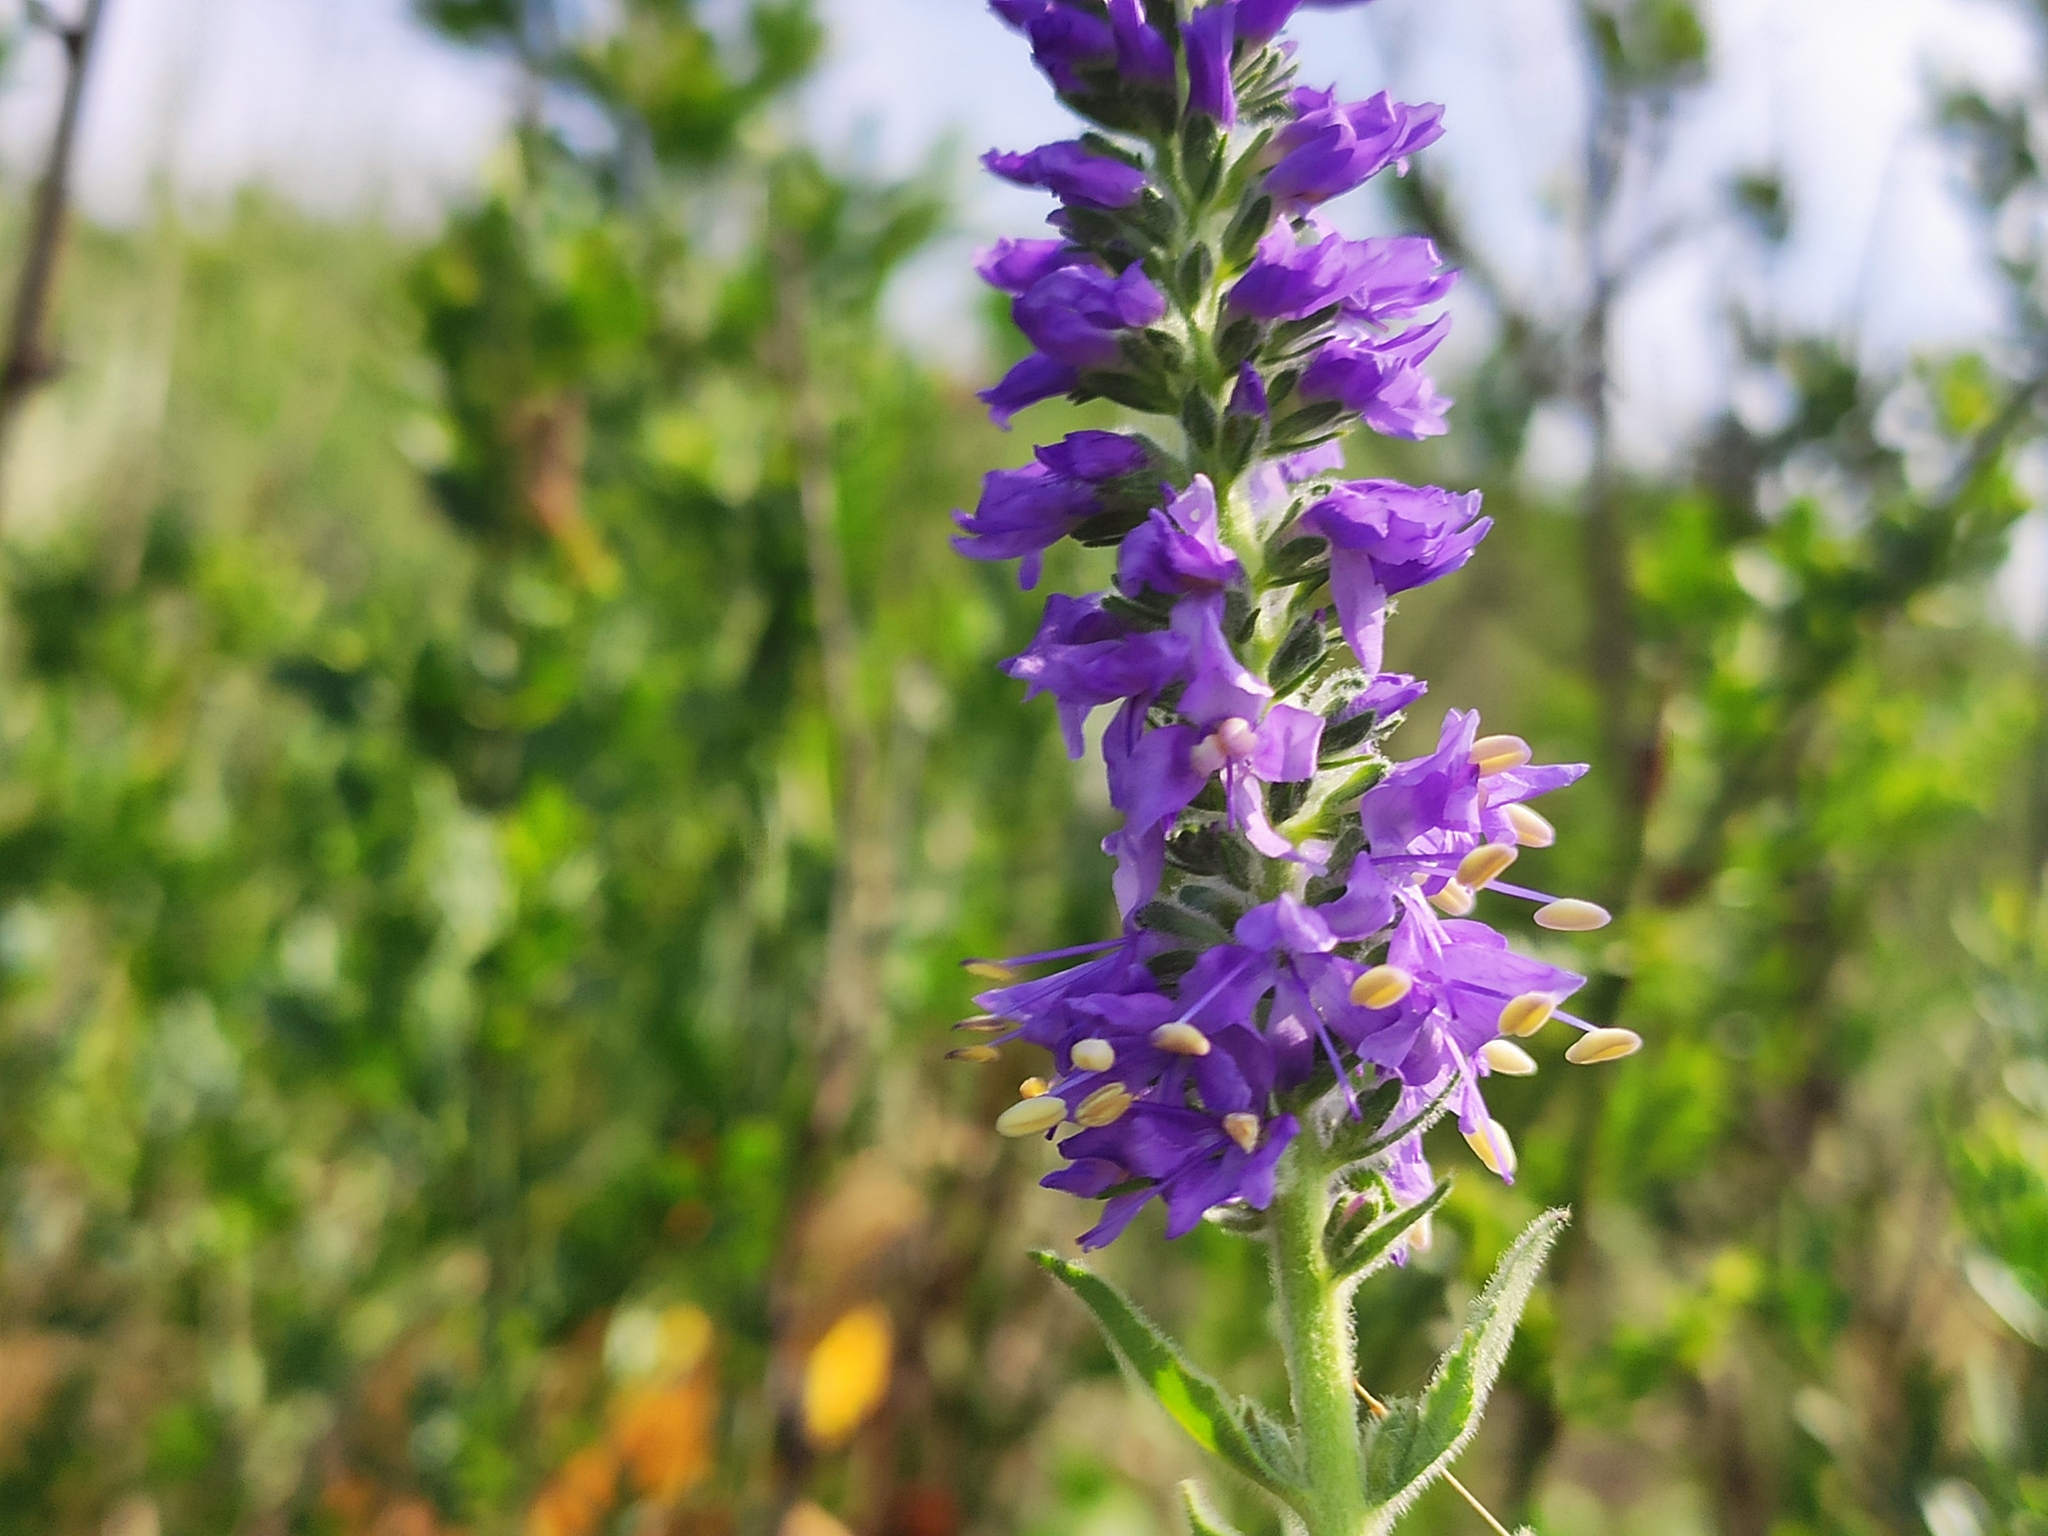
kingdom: Plantae
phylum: Tracheophyta
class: Magnoliopsida
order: Lamiales
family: Plantaginaceae
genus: Veronica
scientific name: Veronica orchidea
